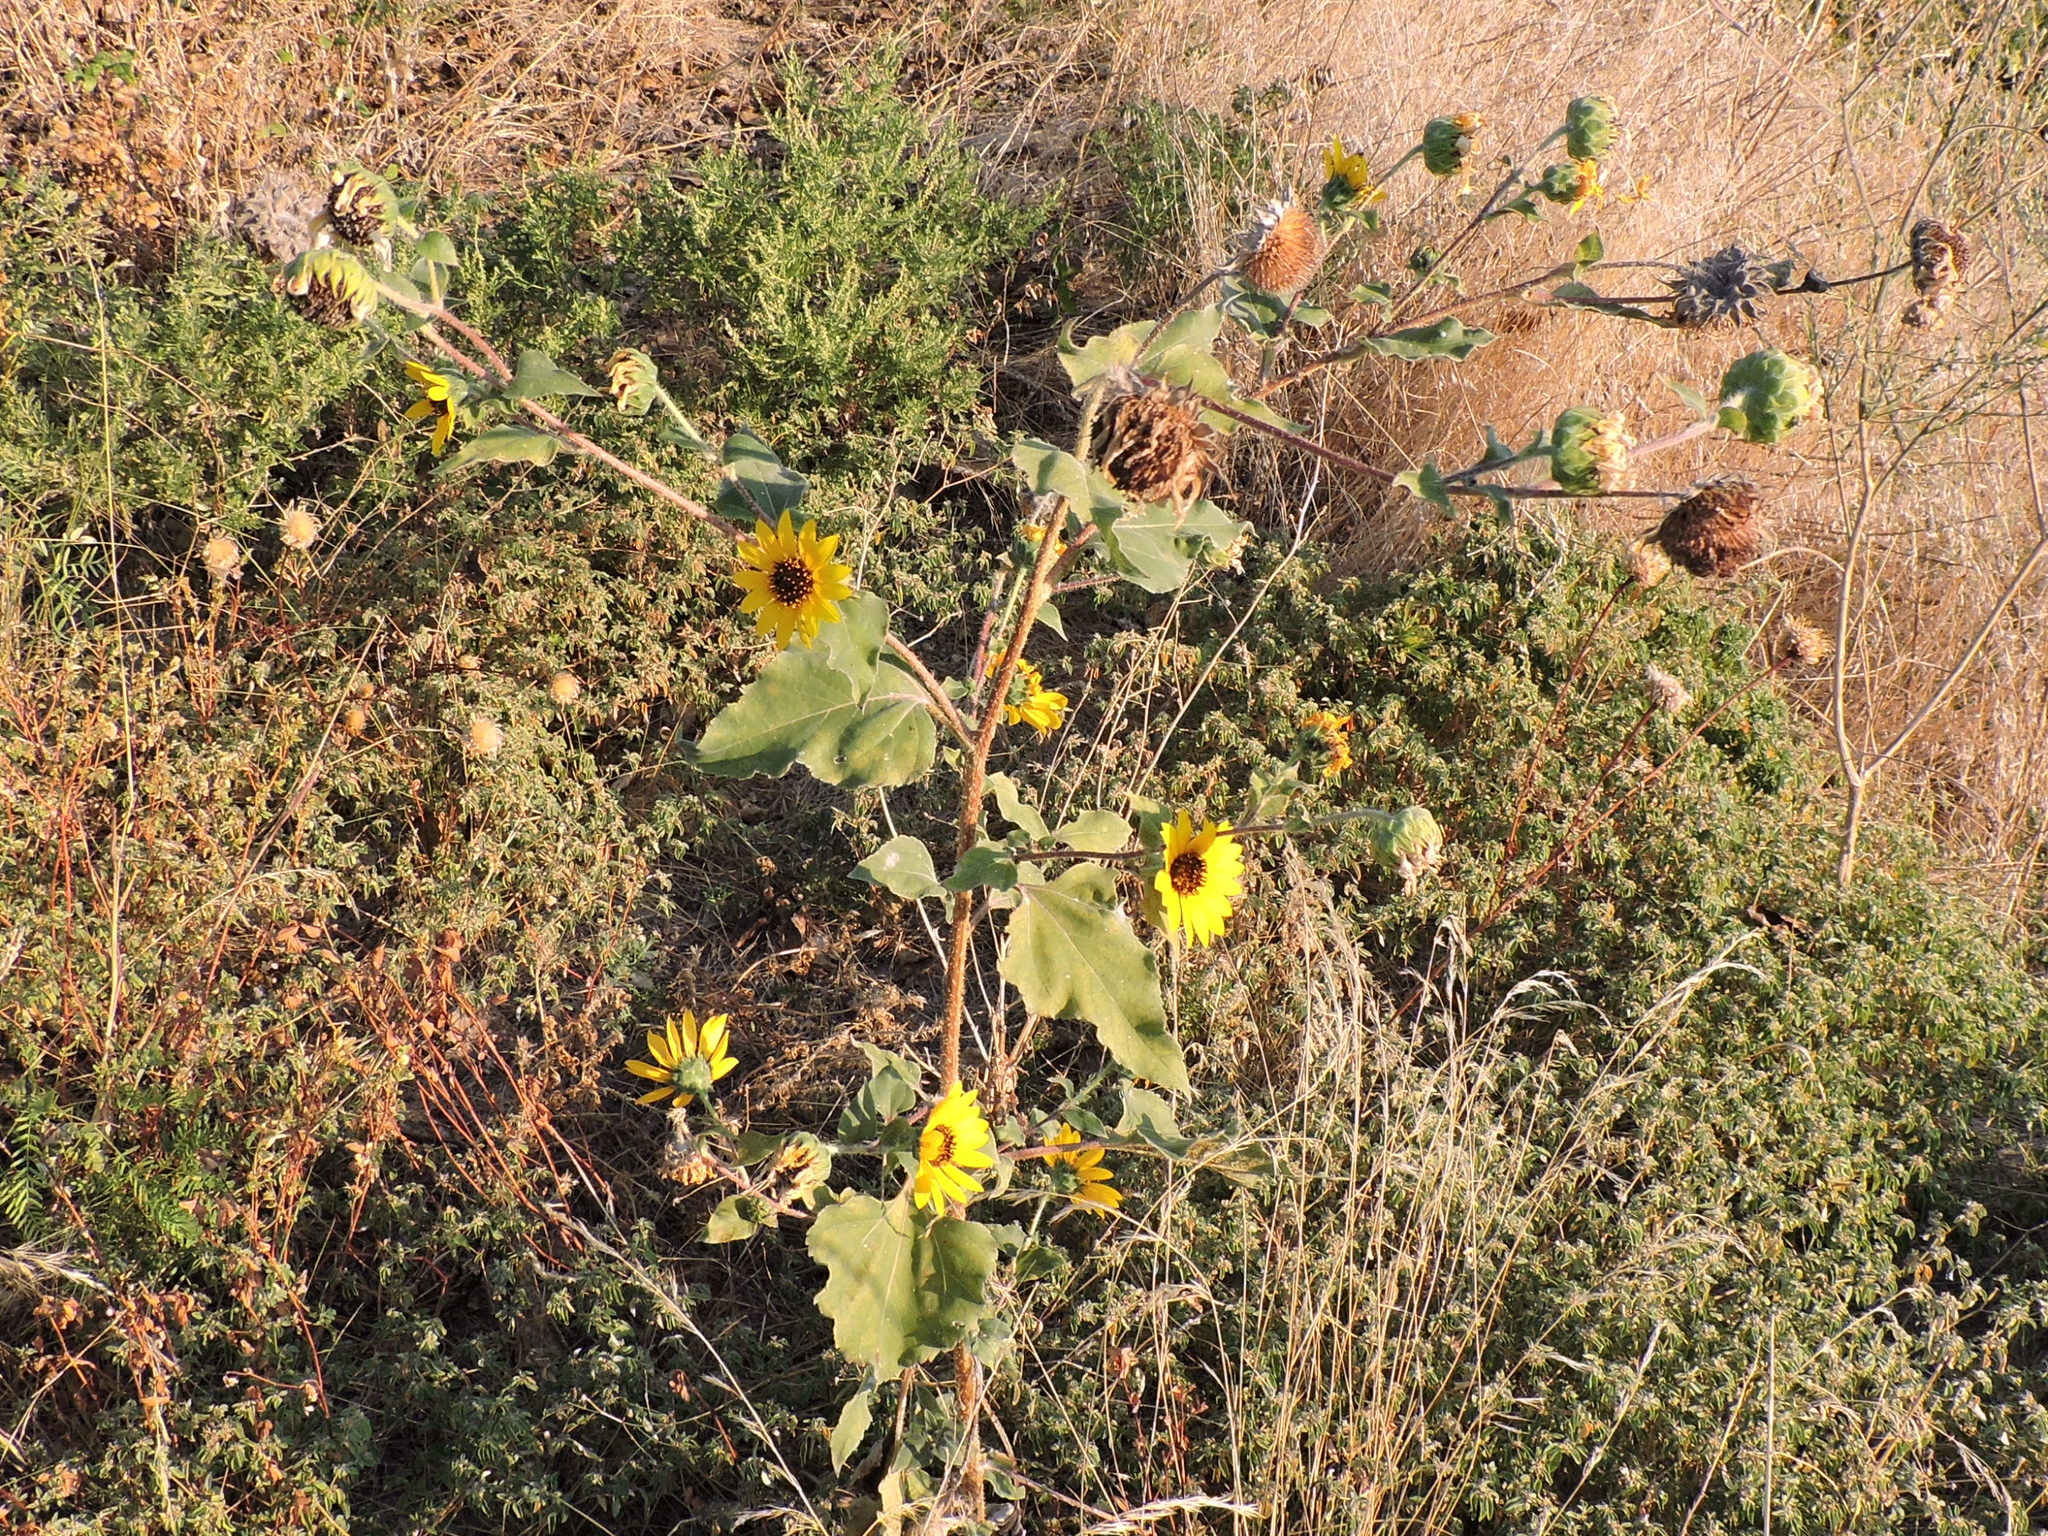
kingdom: Plantae
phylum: Tracheophyta
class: Magnoliopsida
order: Asterales
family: Asteraceae
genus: Helianthus
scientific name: Helianthus annuus
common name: Sunflower
